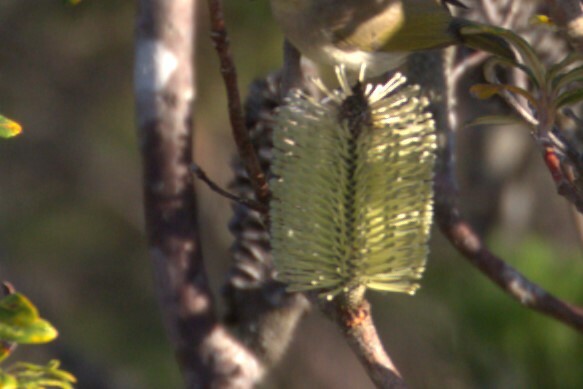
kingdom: Plantae
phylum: Tracheophyta
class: Magnoliopsida
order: Proteales
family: Proteaceae
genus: Banksia
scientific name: Banksia integrifolia
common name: White-honeysuckle
